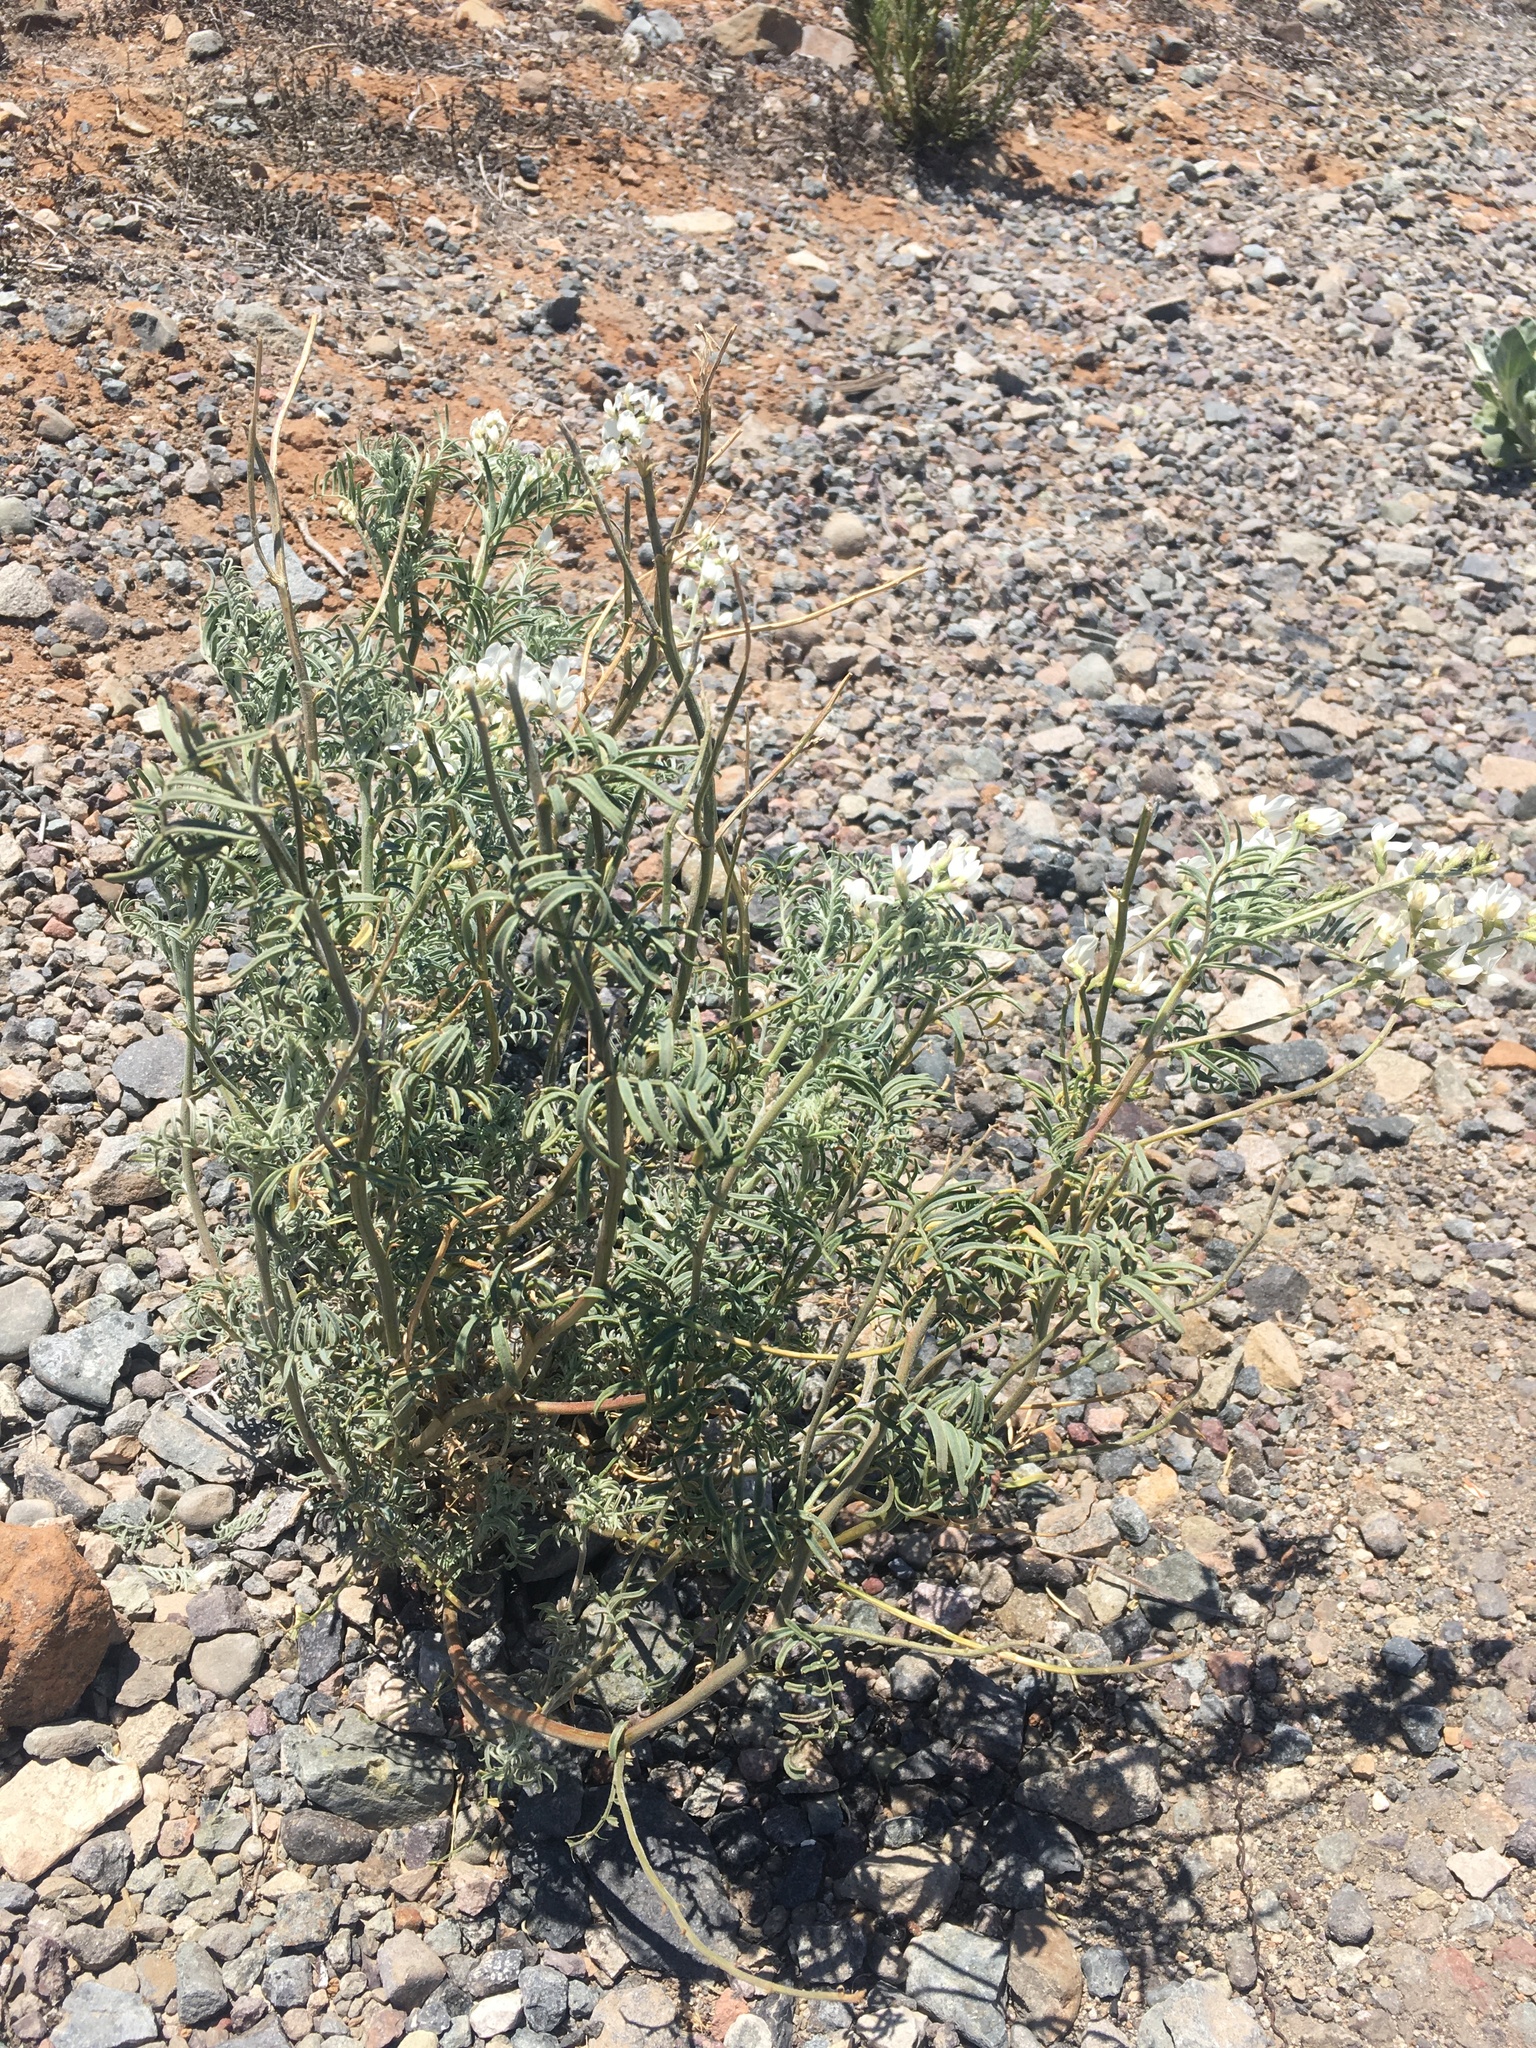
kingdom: Plantae
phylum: Tracheophyta
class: Magnoliopsida
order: Fabales
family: Fabaceae
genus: Astragalus
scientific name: Astragalus coquimbensis
